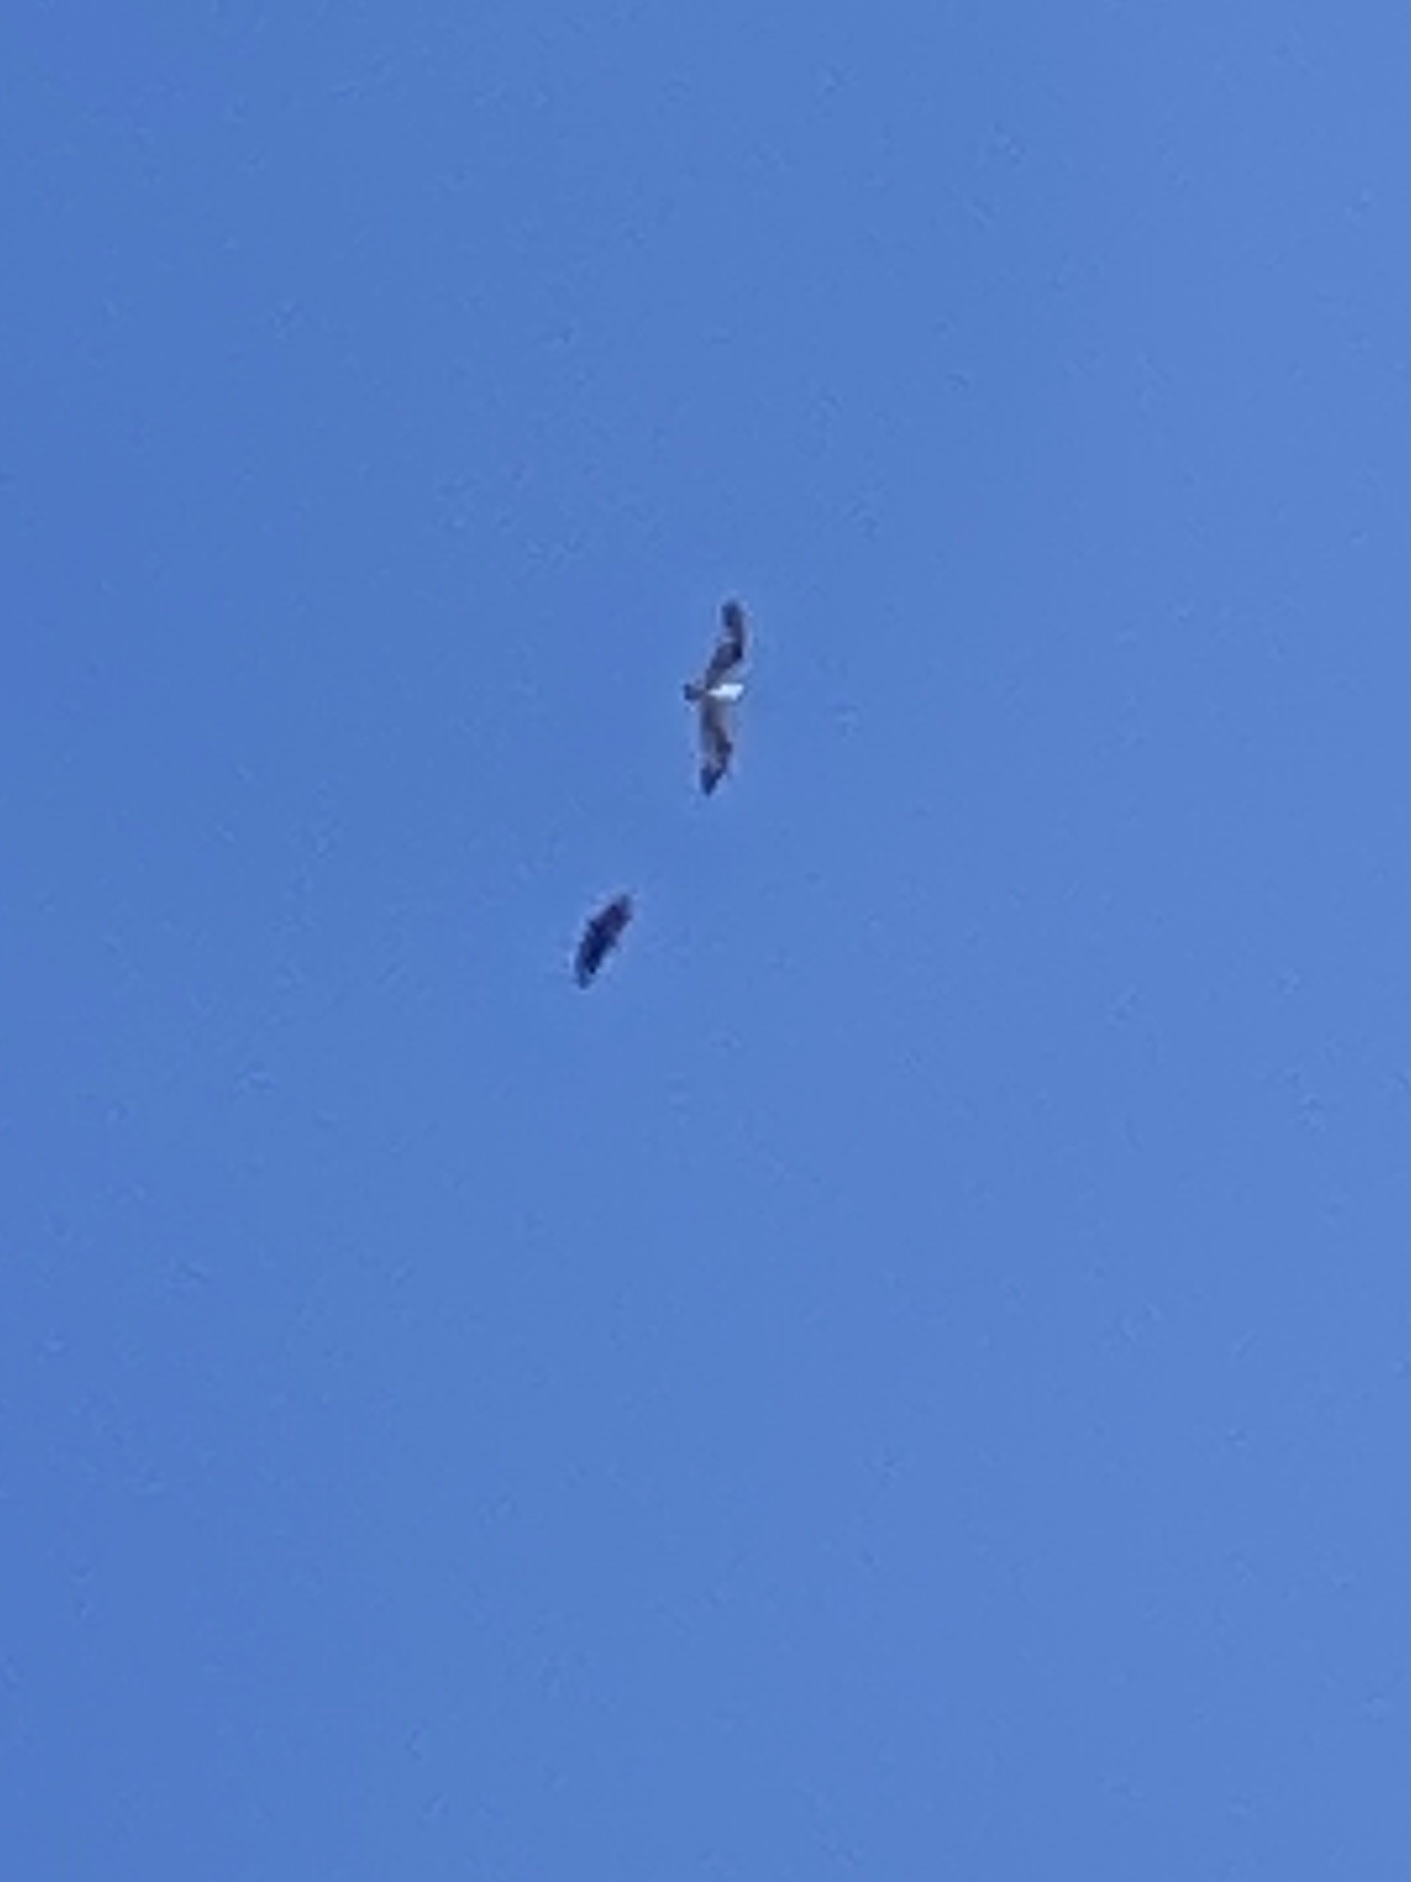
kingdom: Animalia
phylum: Chordata
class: Aves
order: Accipitriformes
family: Pandionidae
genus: Pandion
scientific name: Pandion haliaetus
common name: Osprey
